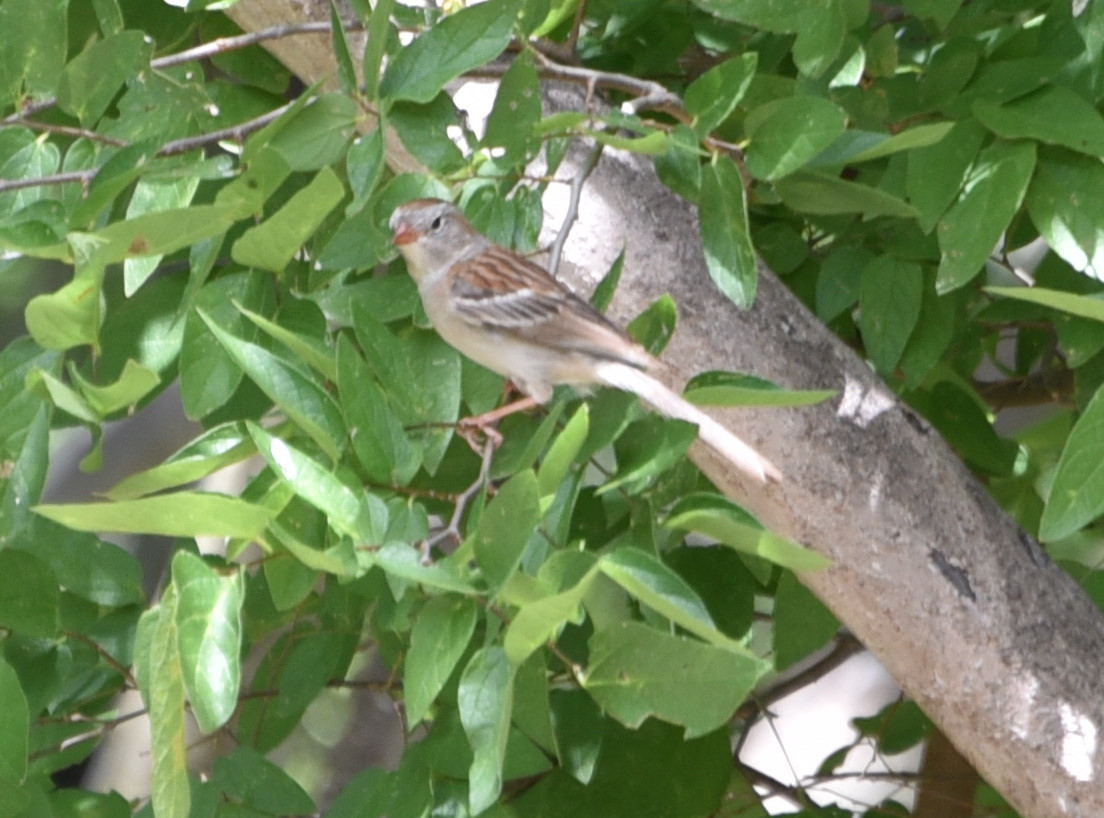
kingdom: Animalia
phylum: Chordata
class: Aves
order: Passeriformes
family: Passerellidae
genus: Spizella
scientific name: Spizella pusilla
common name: Field sparrow
